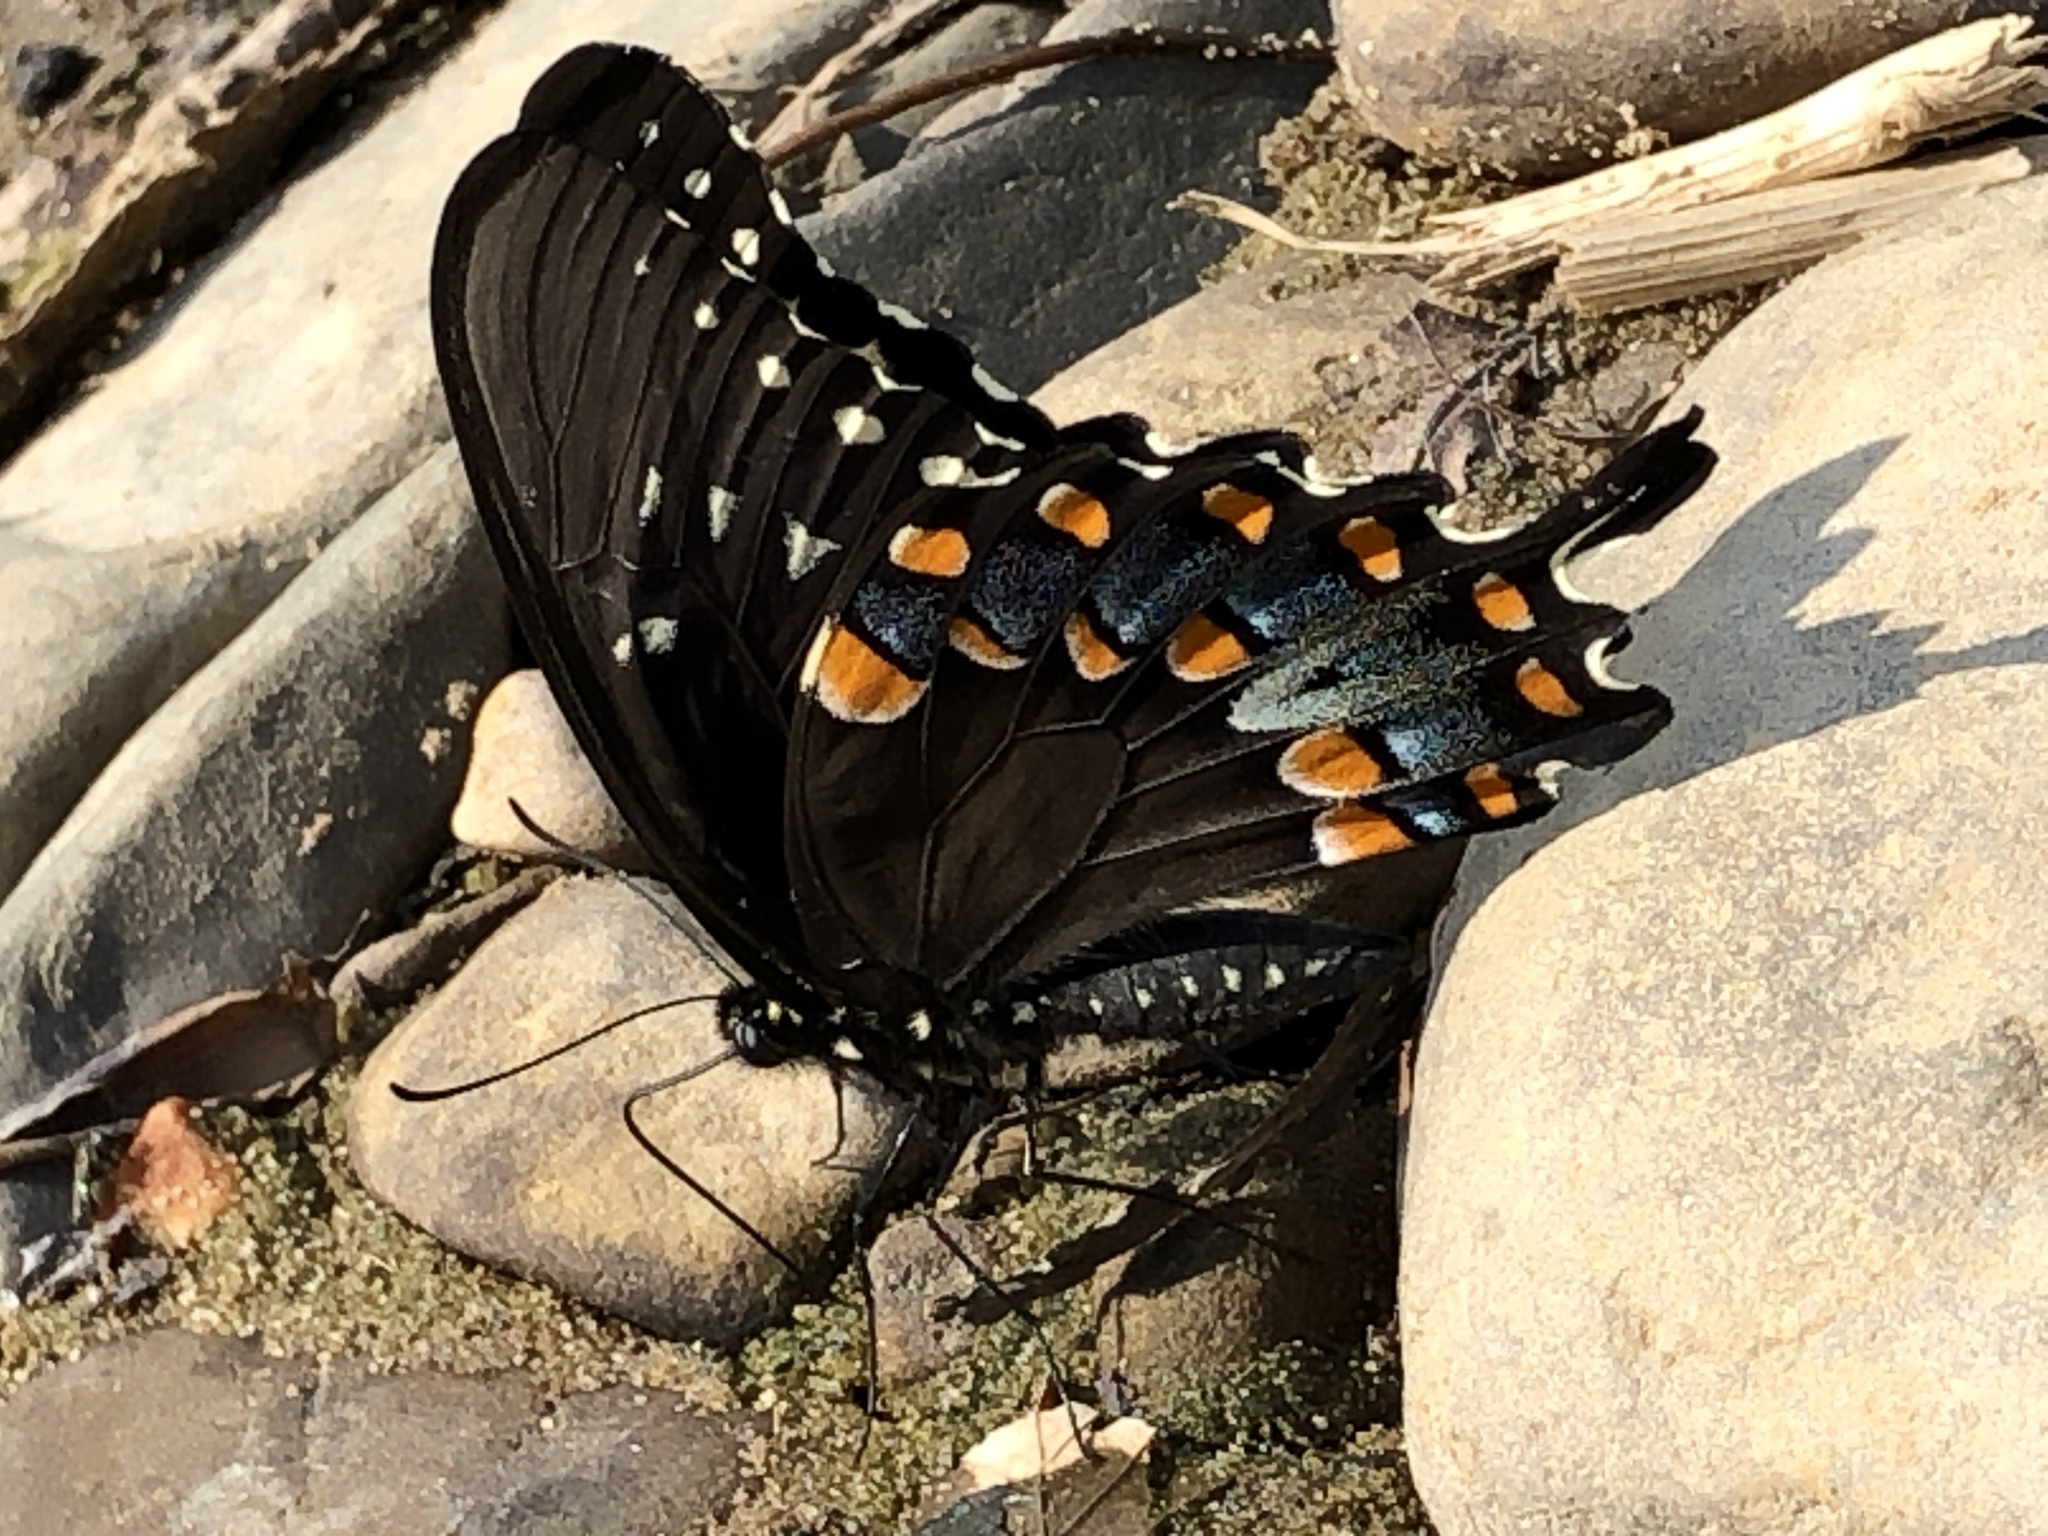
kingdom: Animalia
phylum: Arthropoda
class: Insecta
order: Lepidoptera
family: Papilionidae
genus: Papilio
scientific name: Papilio troilus
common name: Spicebush swallowtail
